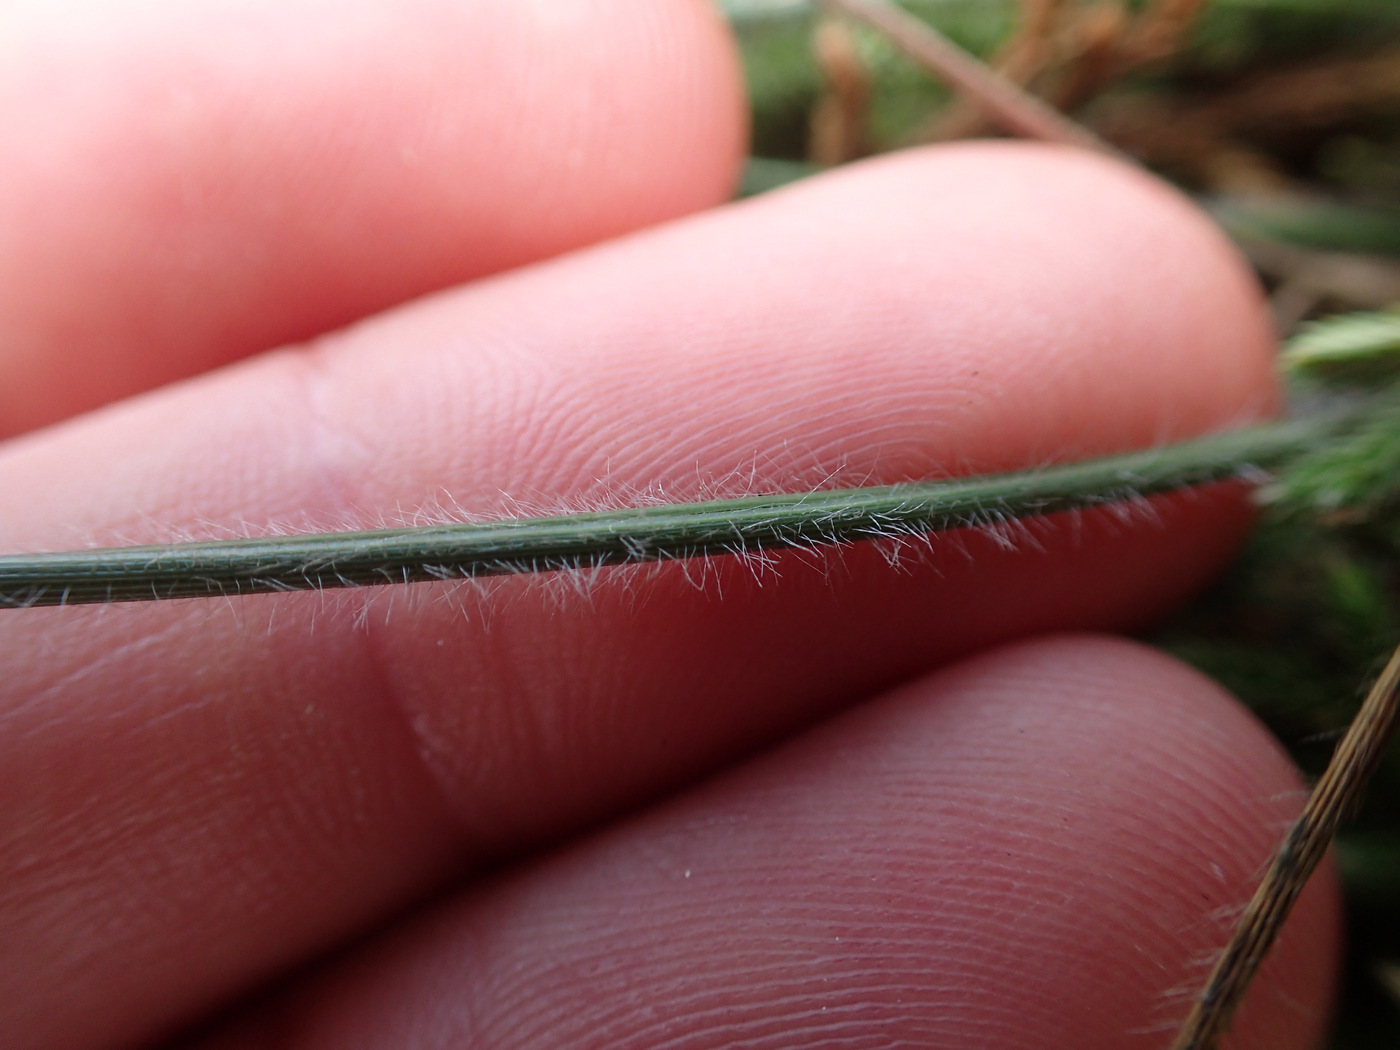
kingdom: Plantae
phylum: Tracheophyta
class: Liliopsida
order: Poales
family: Poaceae
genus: Danthonia
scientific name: Danthonia sericea
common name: Downy danthonia
